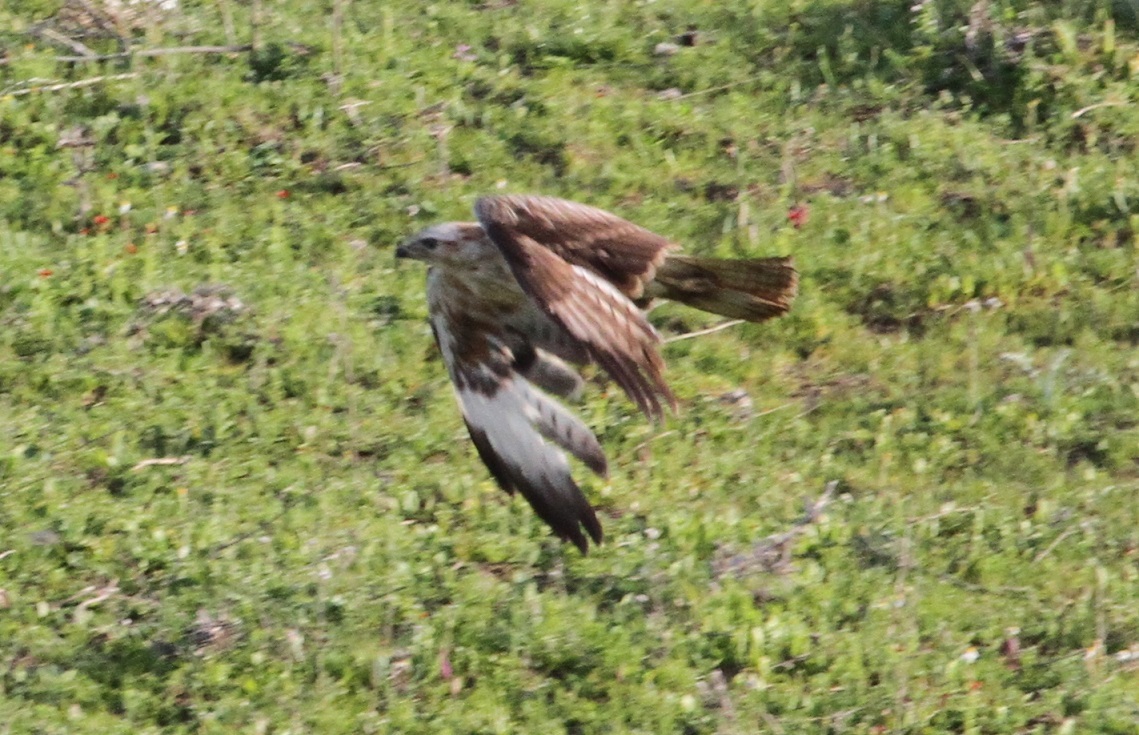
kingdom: Animalia
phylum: Chordata
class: Aves
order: Accipitriformes
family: Accipitridae
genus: Buteo
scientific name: Buteo rufinus
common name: Long-legged buzzard
